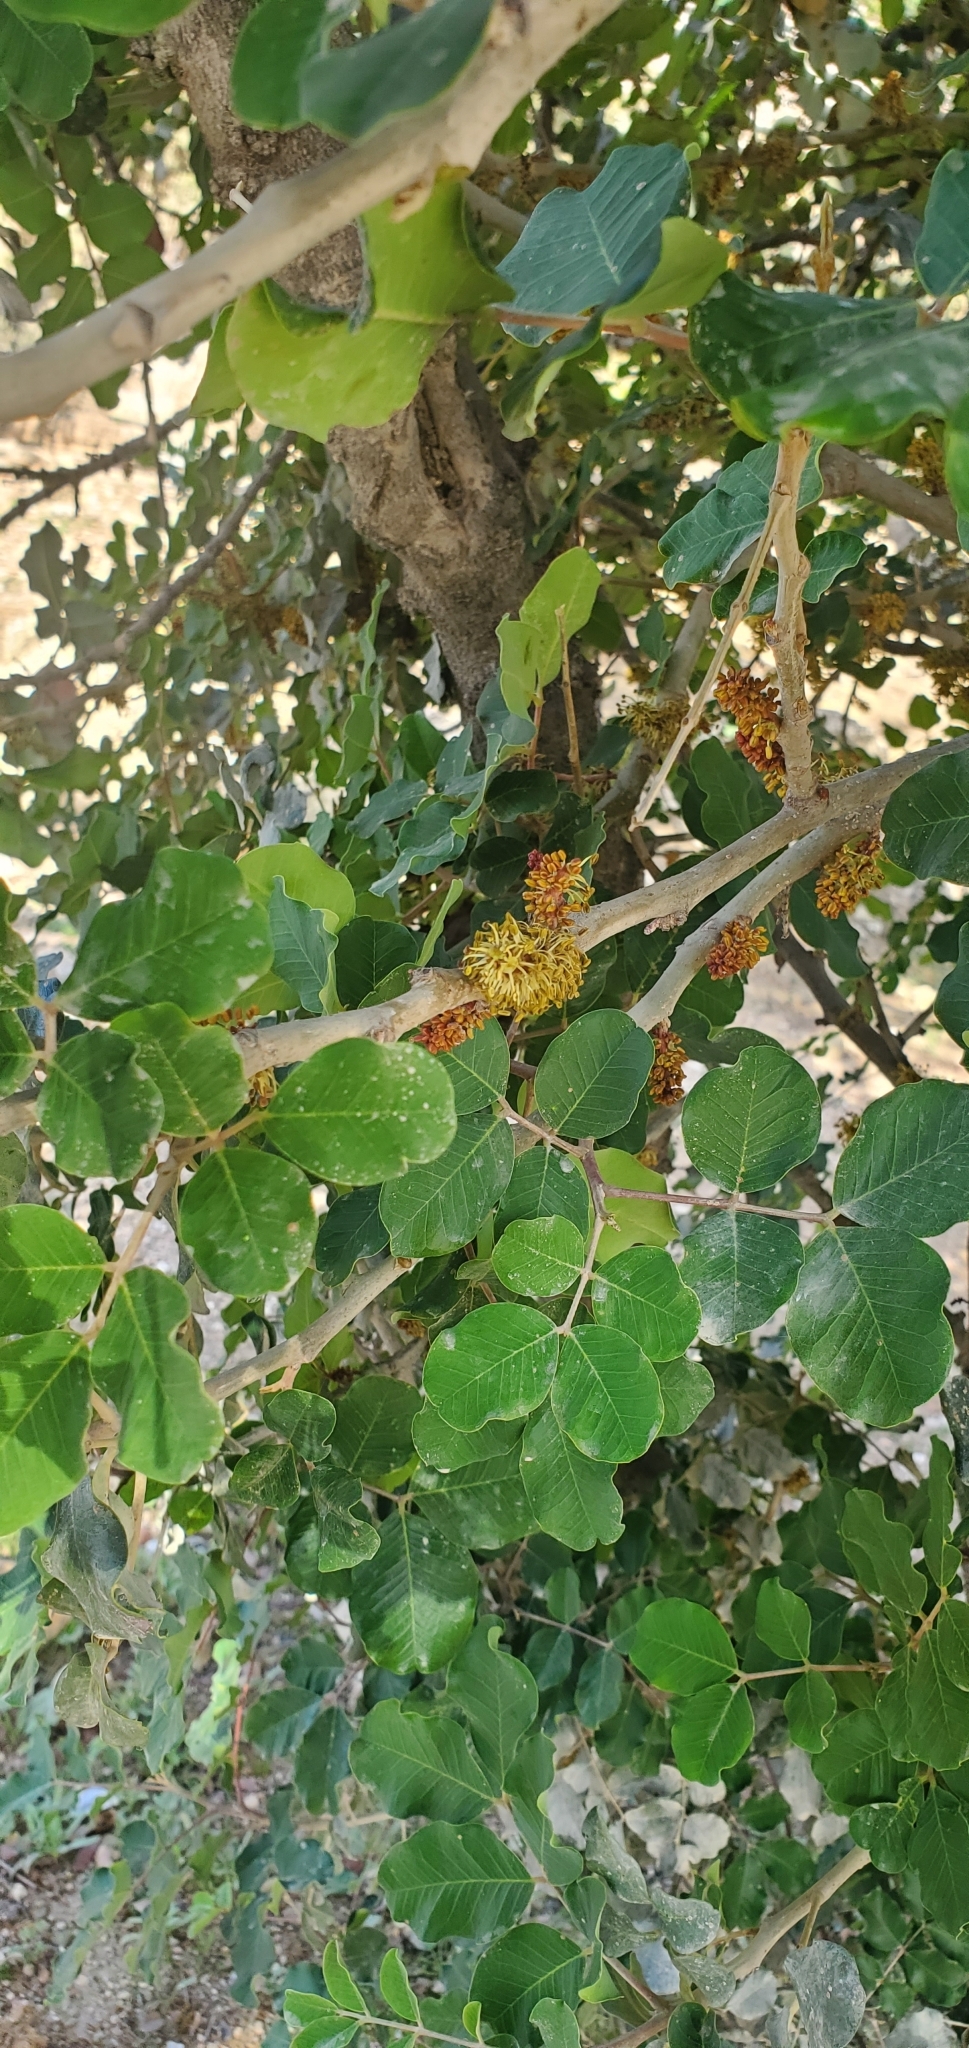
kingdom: Plantae
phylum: Tracheophyta
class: Magnoliopsida
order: Fabales
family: Fabaceae
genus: Ceratonia
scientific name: Ceratonia siliqua
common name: Carob
